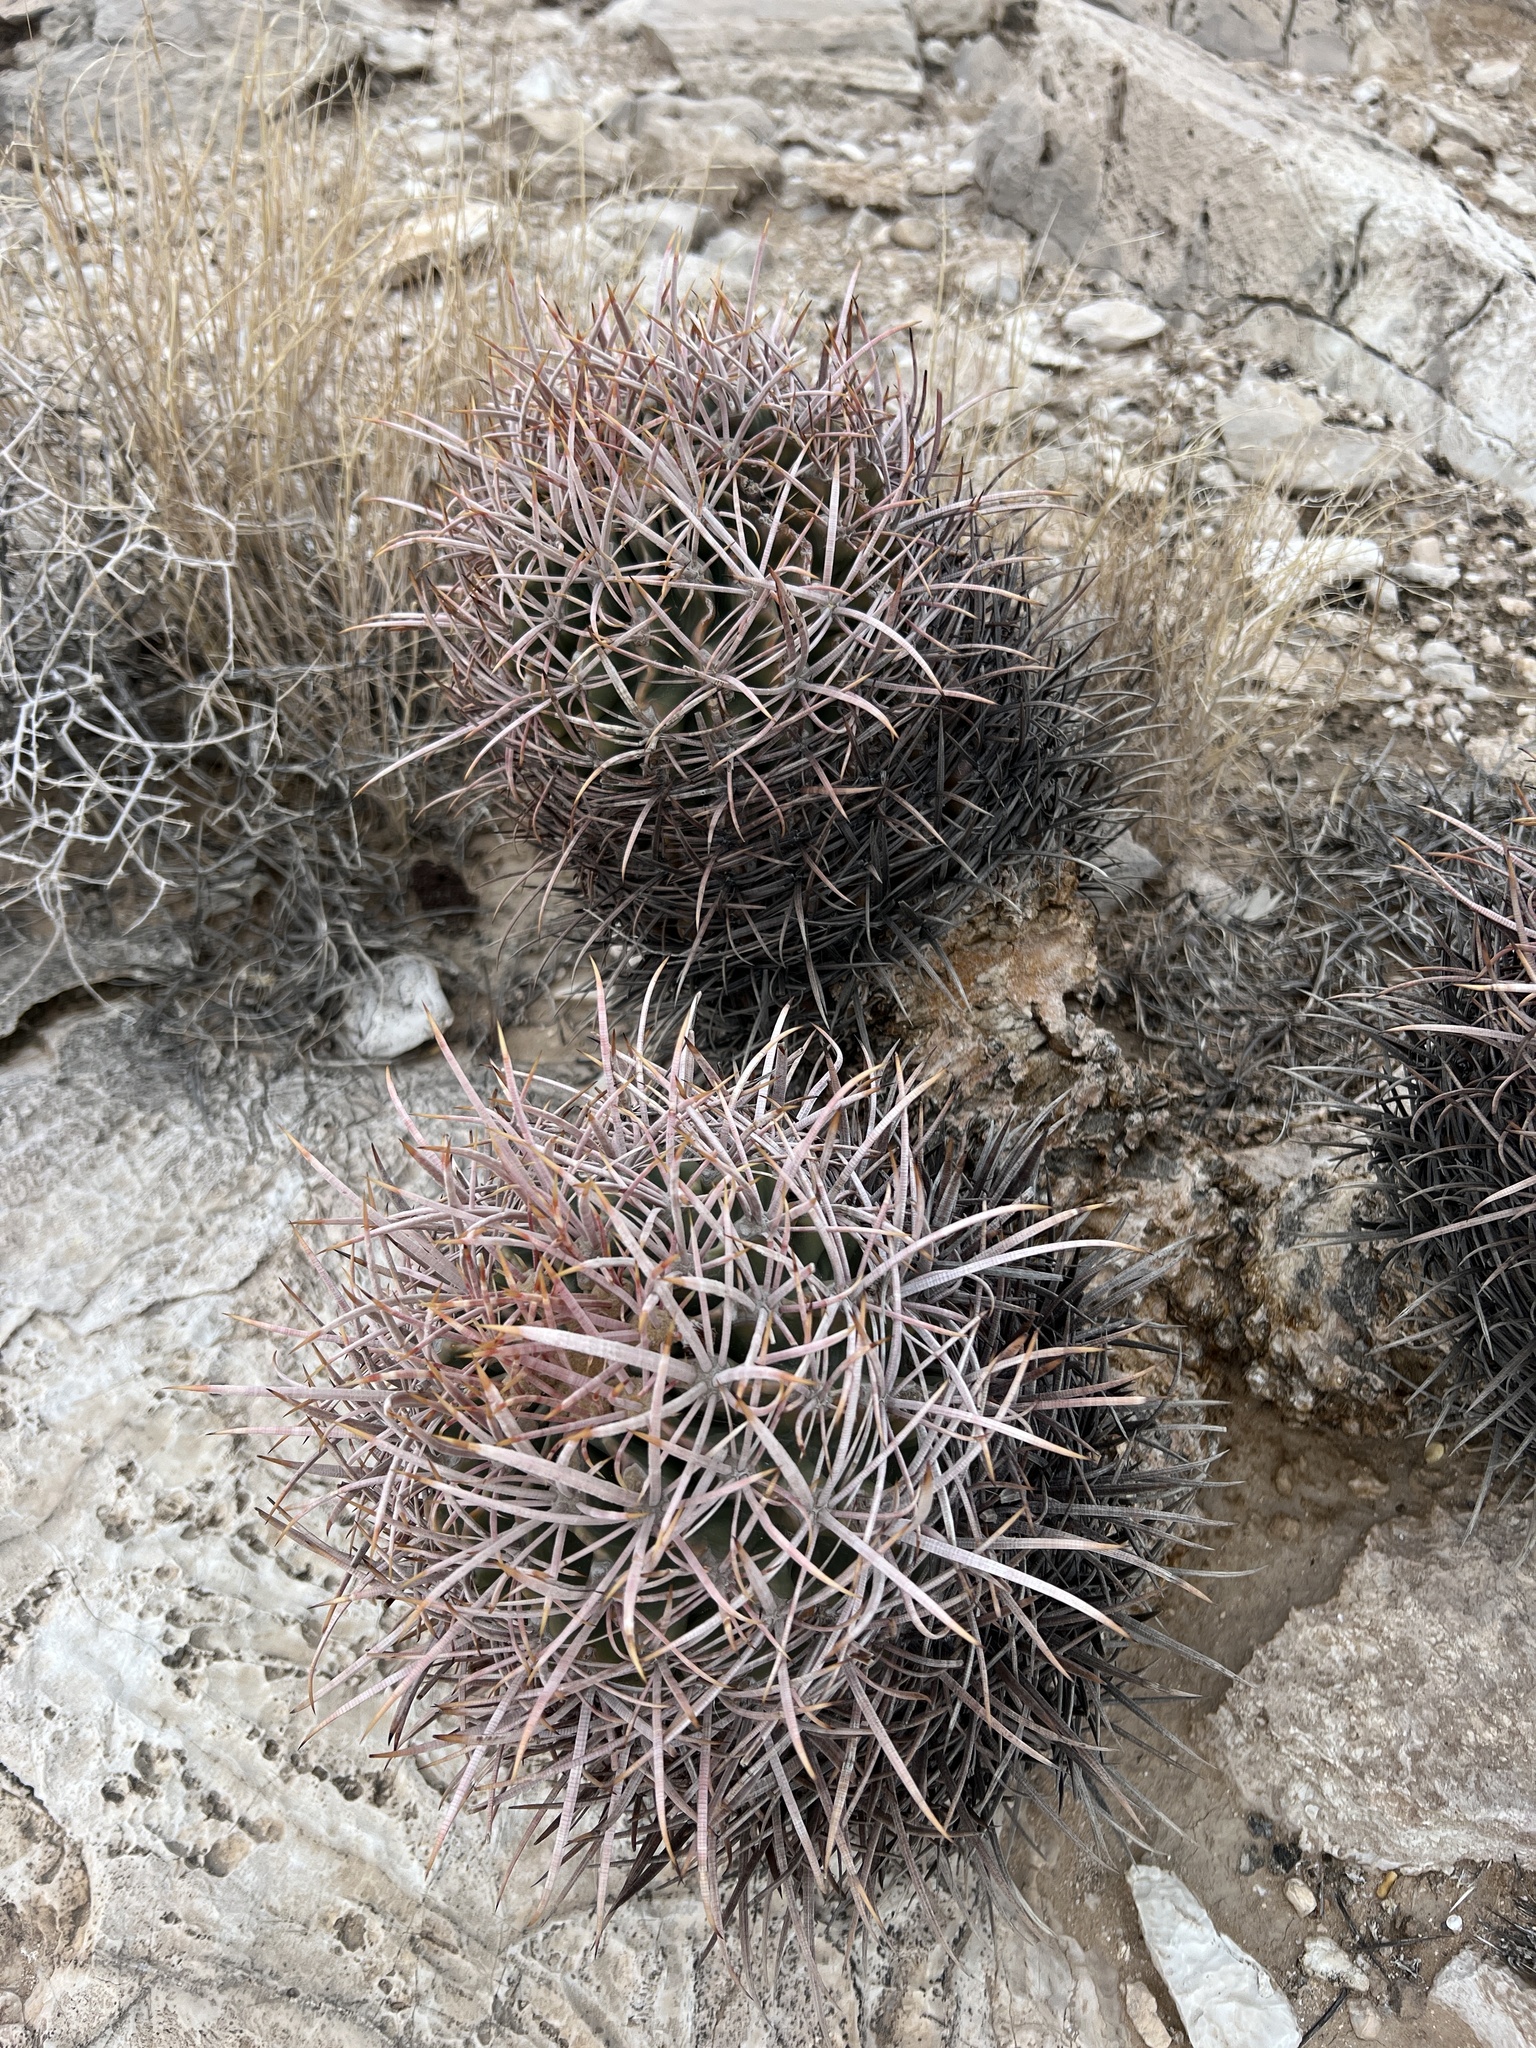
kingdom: Plantae
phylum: Tracheophyta
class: Magnoliopsida
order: Caryophyllales
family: Cactaceae
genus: Echinocactus
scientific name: Echinocactus polycephalus
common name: Cottontop cactus
